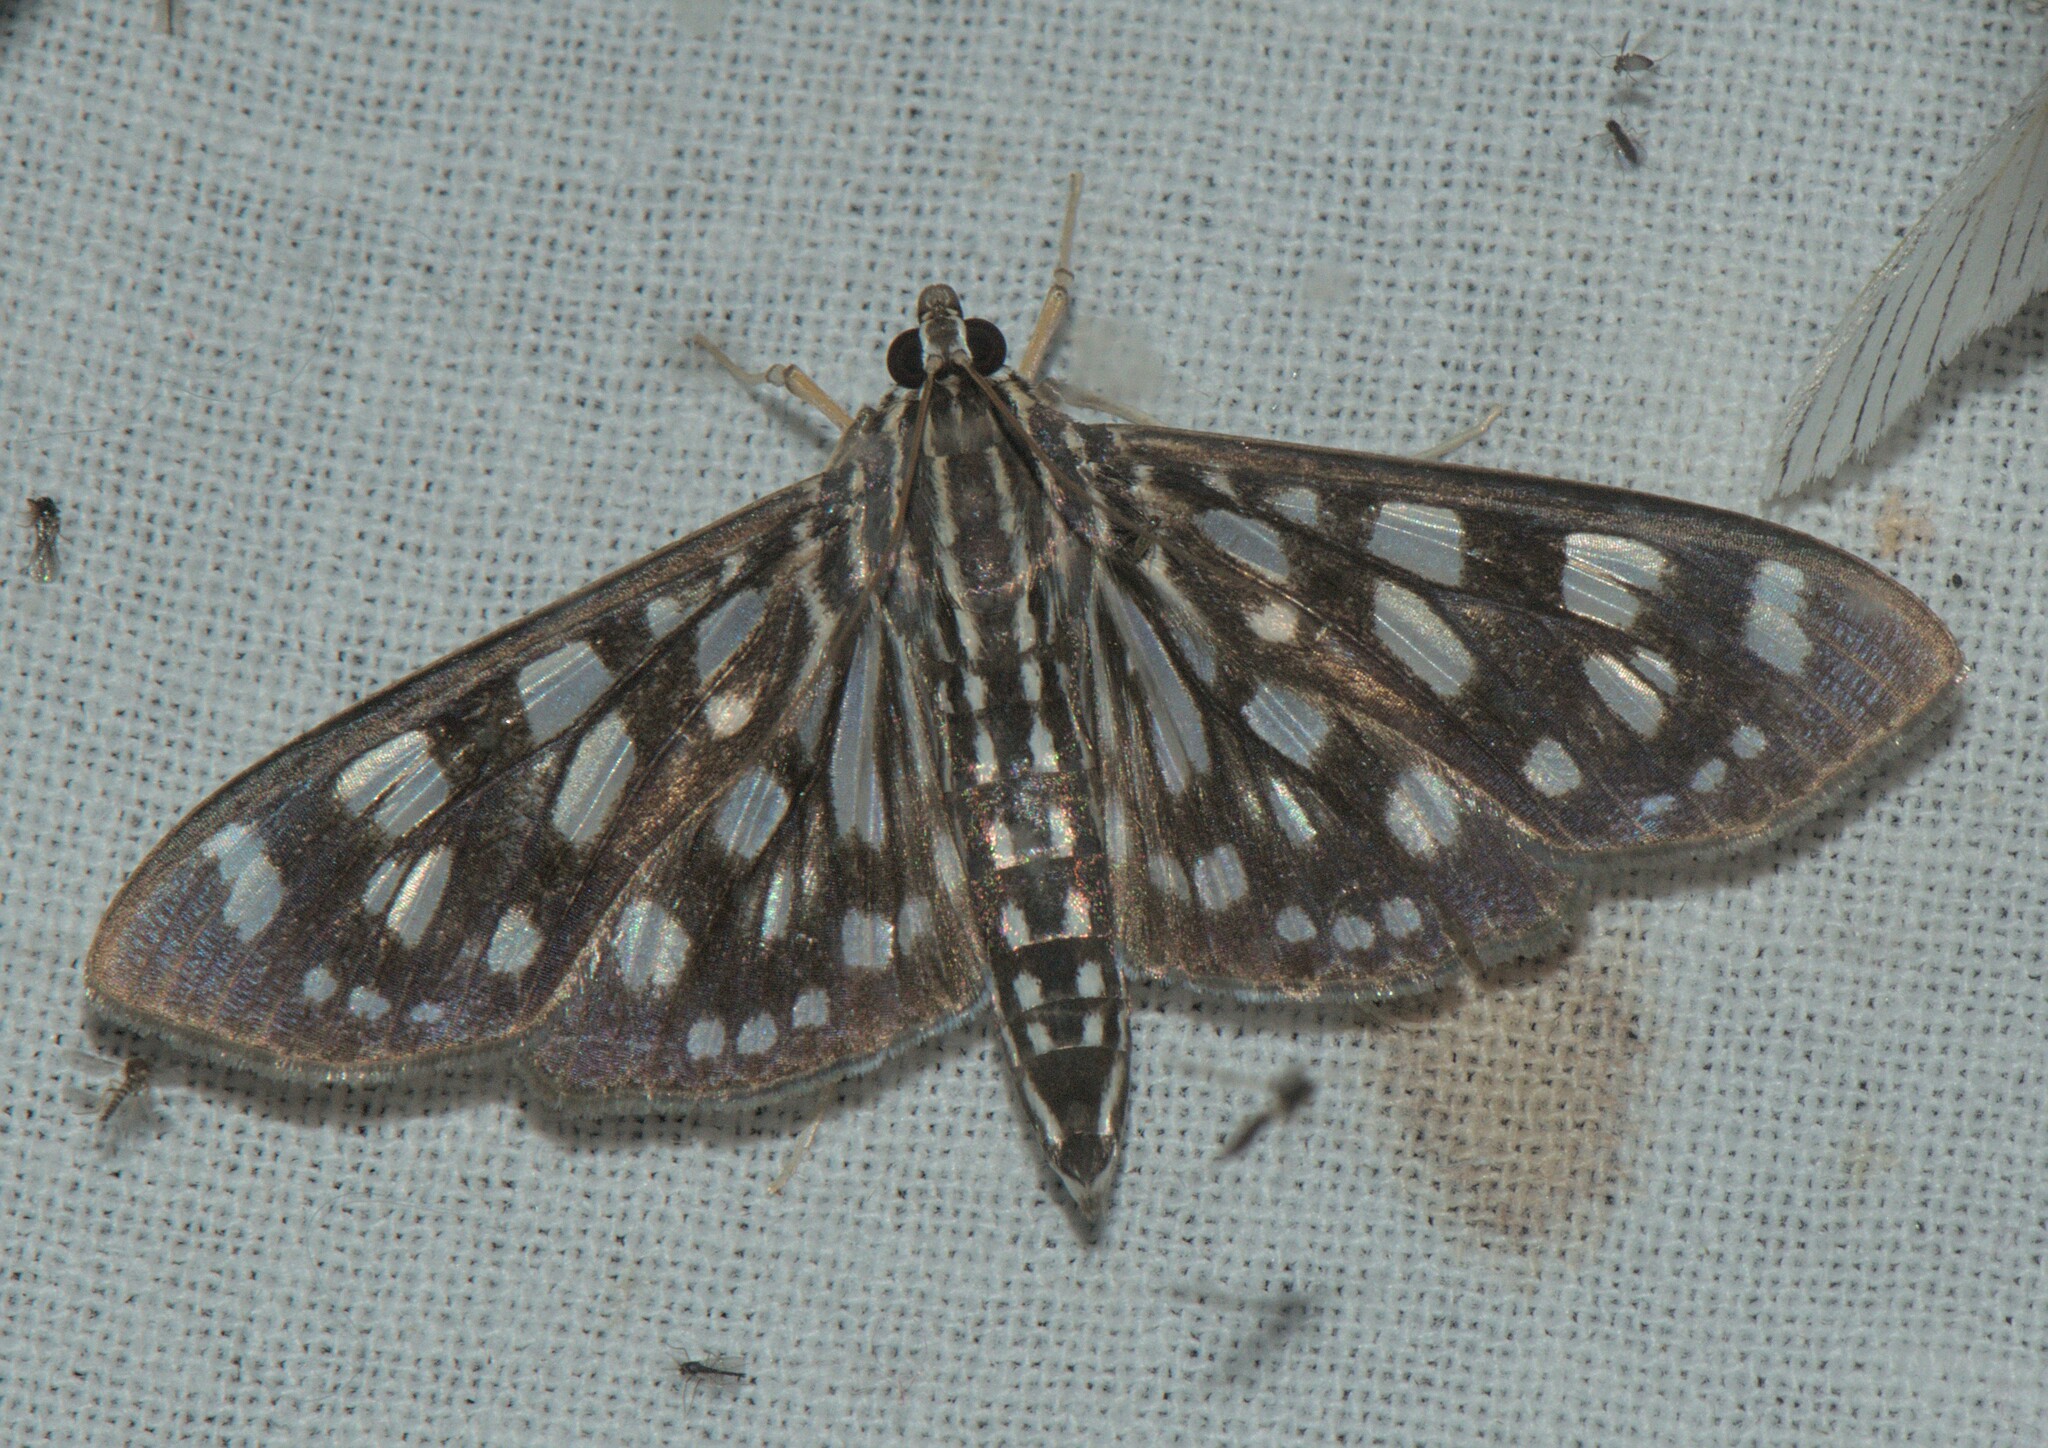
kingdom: Animalia
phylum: Arthropoda
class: Insecta
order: Lepidoptera
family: Crambidae
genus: Pygospila
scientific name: Pygospila tyres
